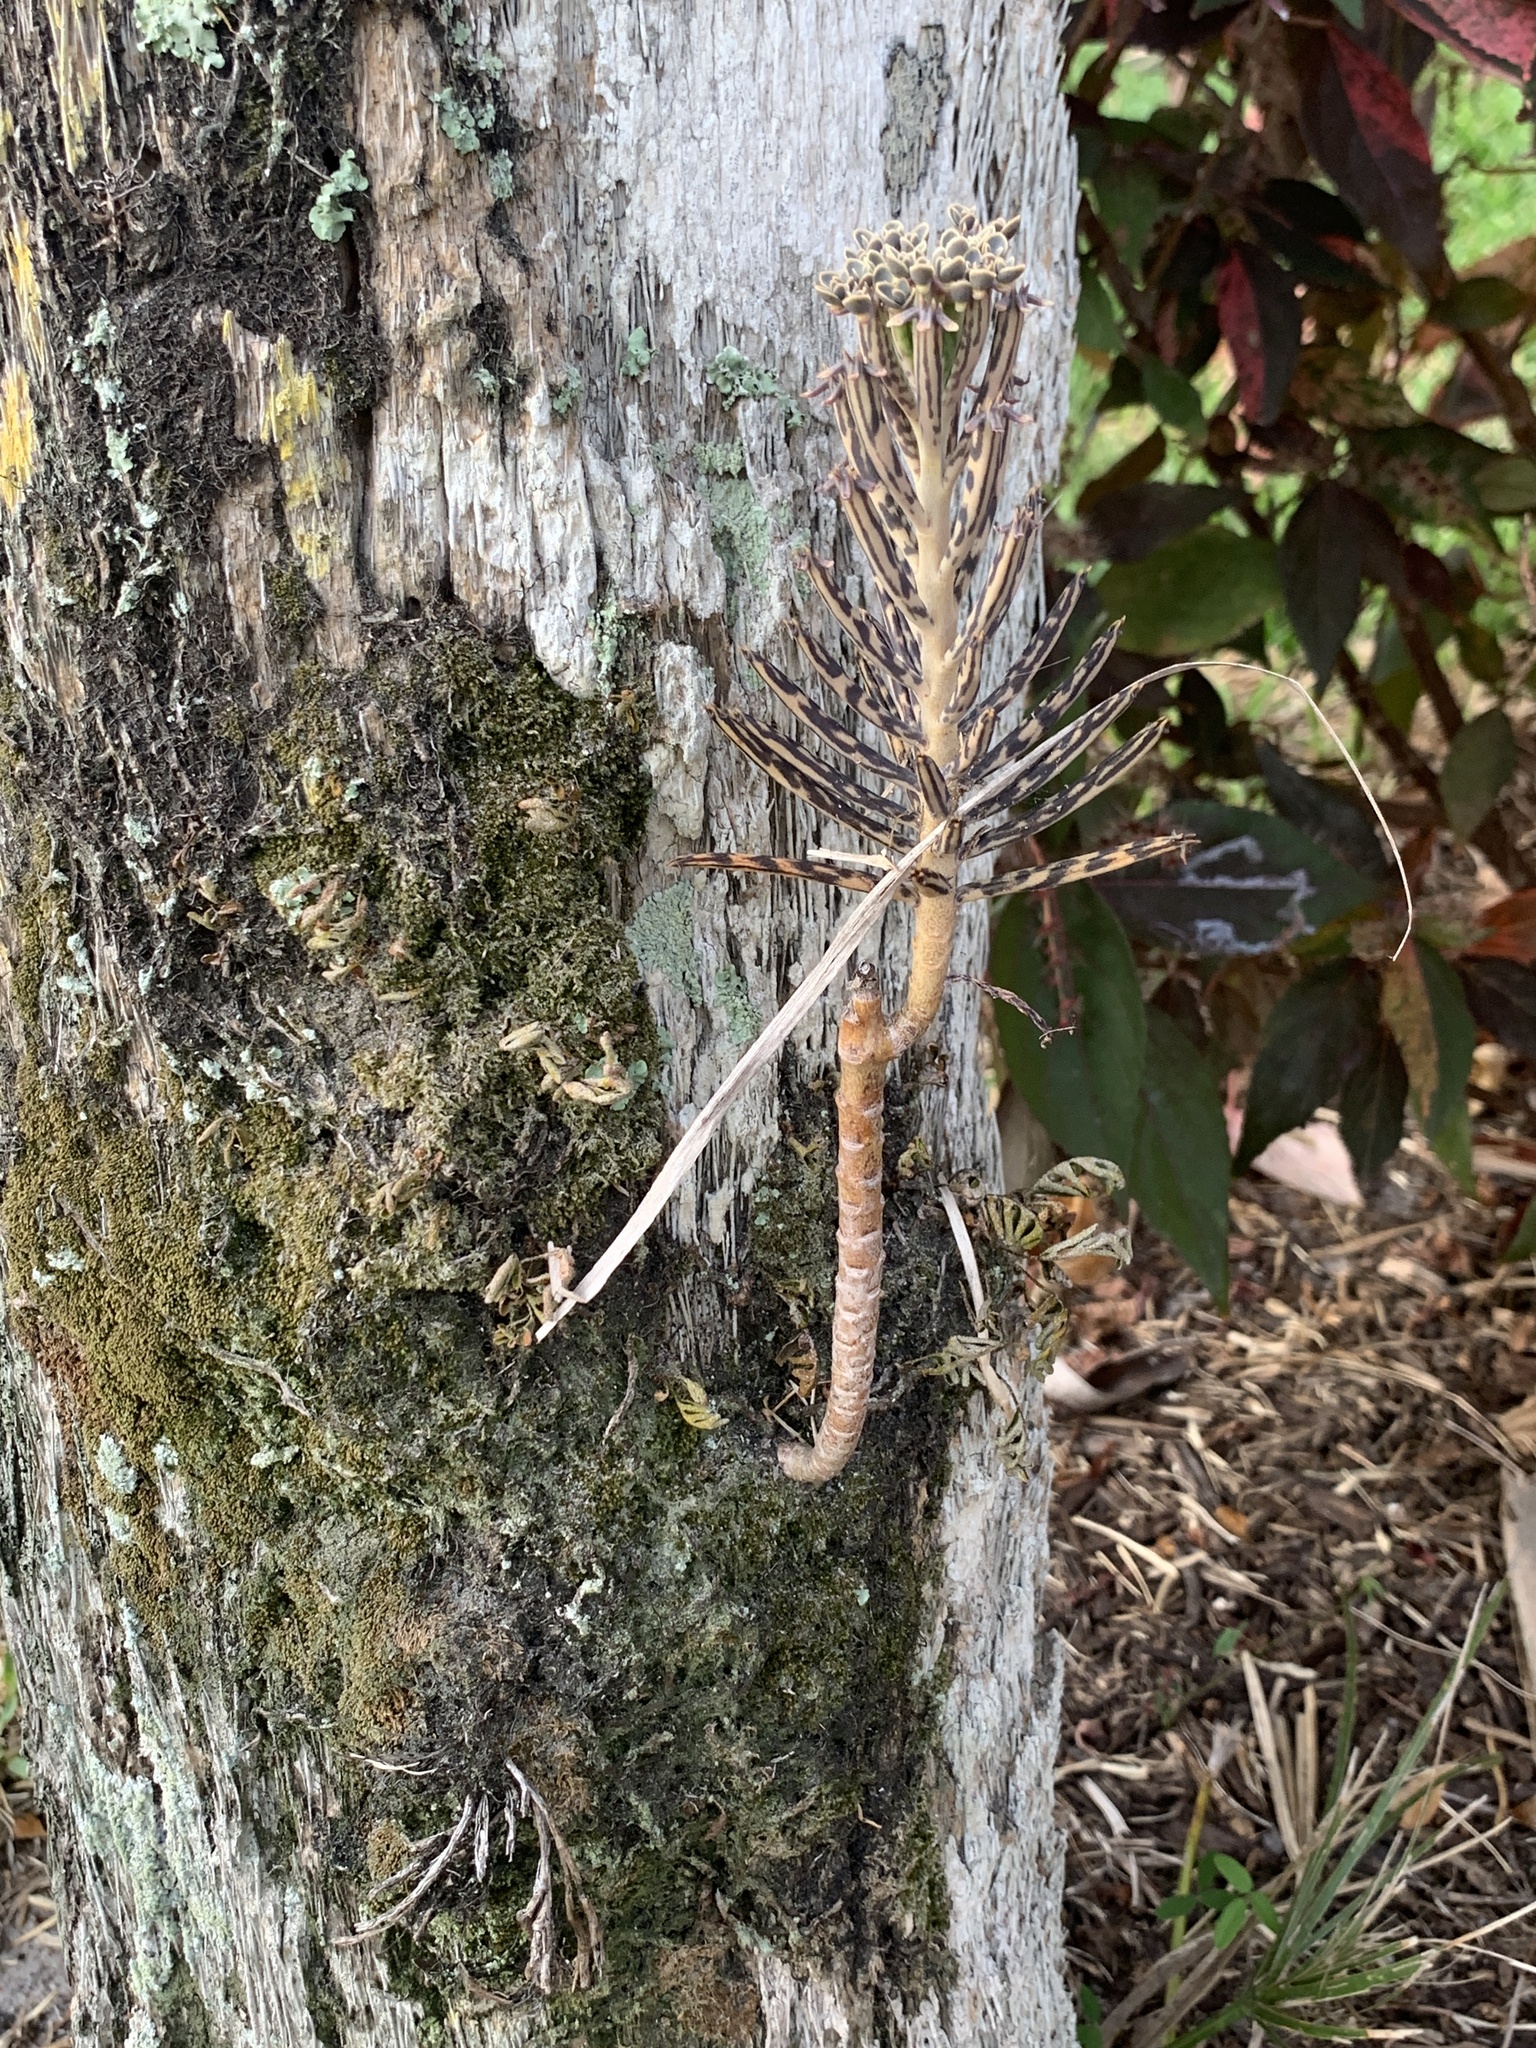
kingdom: Plantae
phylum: Tracheophyta
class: Magnoliopsida
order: Saxifragales
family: Crassulaceae
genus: Kalanchoe
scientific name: Kalanchoe delagoensis
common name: Chandelier plant
